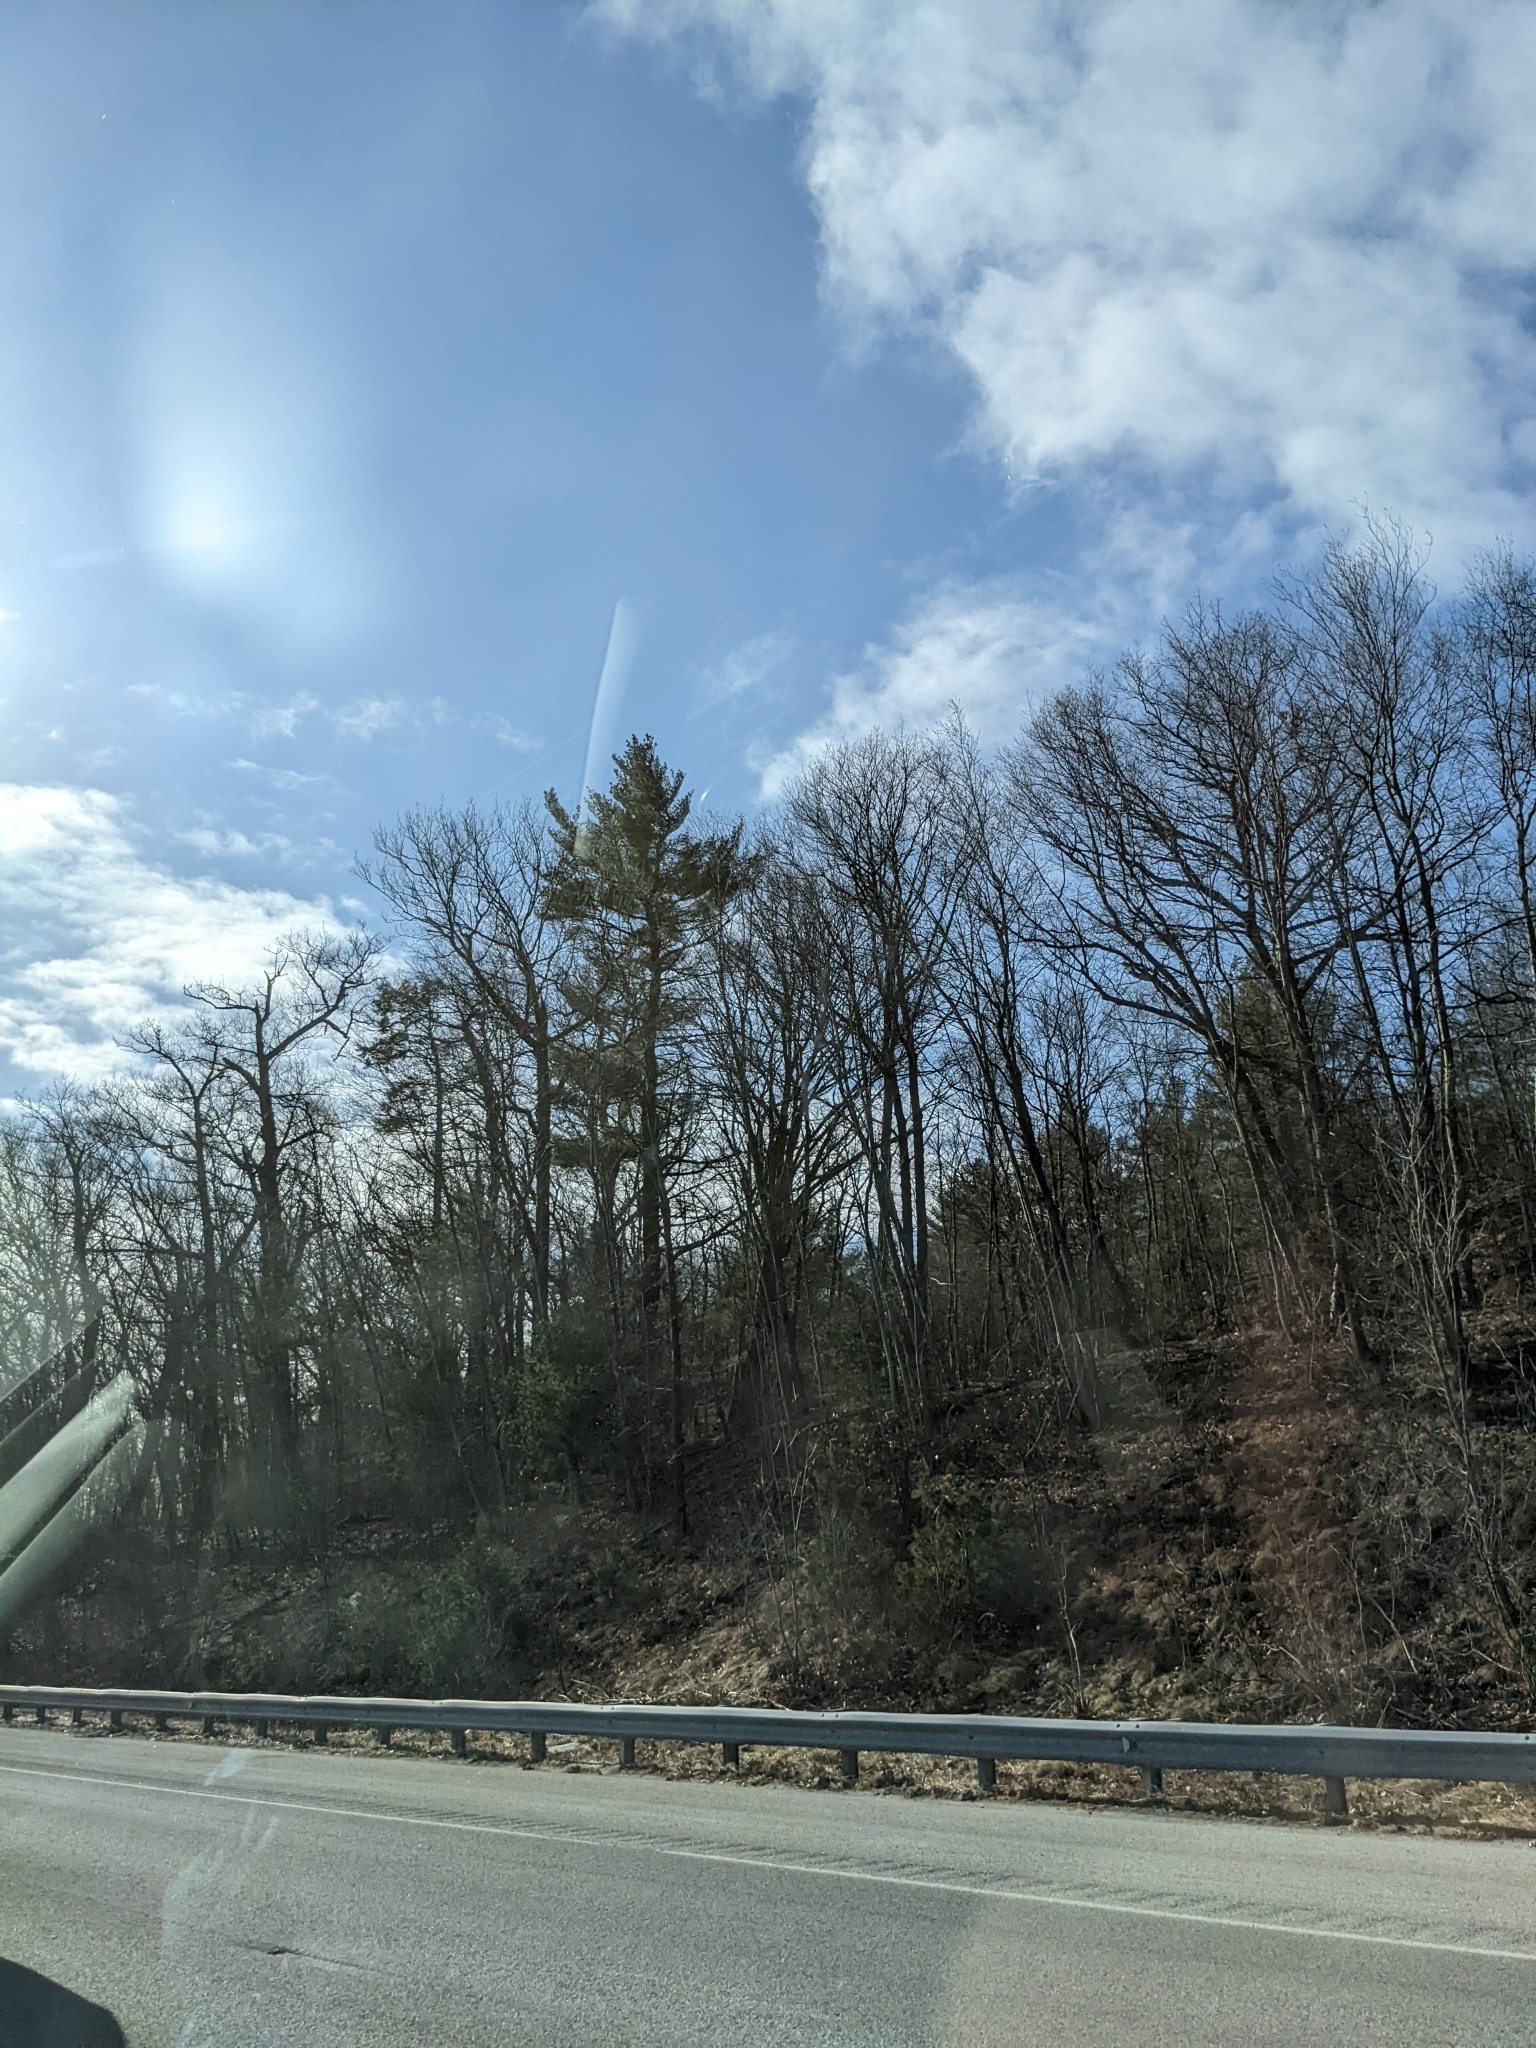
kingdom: Plantae
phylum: Tracheophyta
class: Pinopsida
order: Pinales
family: Pinaceae
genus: Pinus
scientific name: Pinus strobus
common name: Weymouth pine
